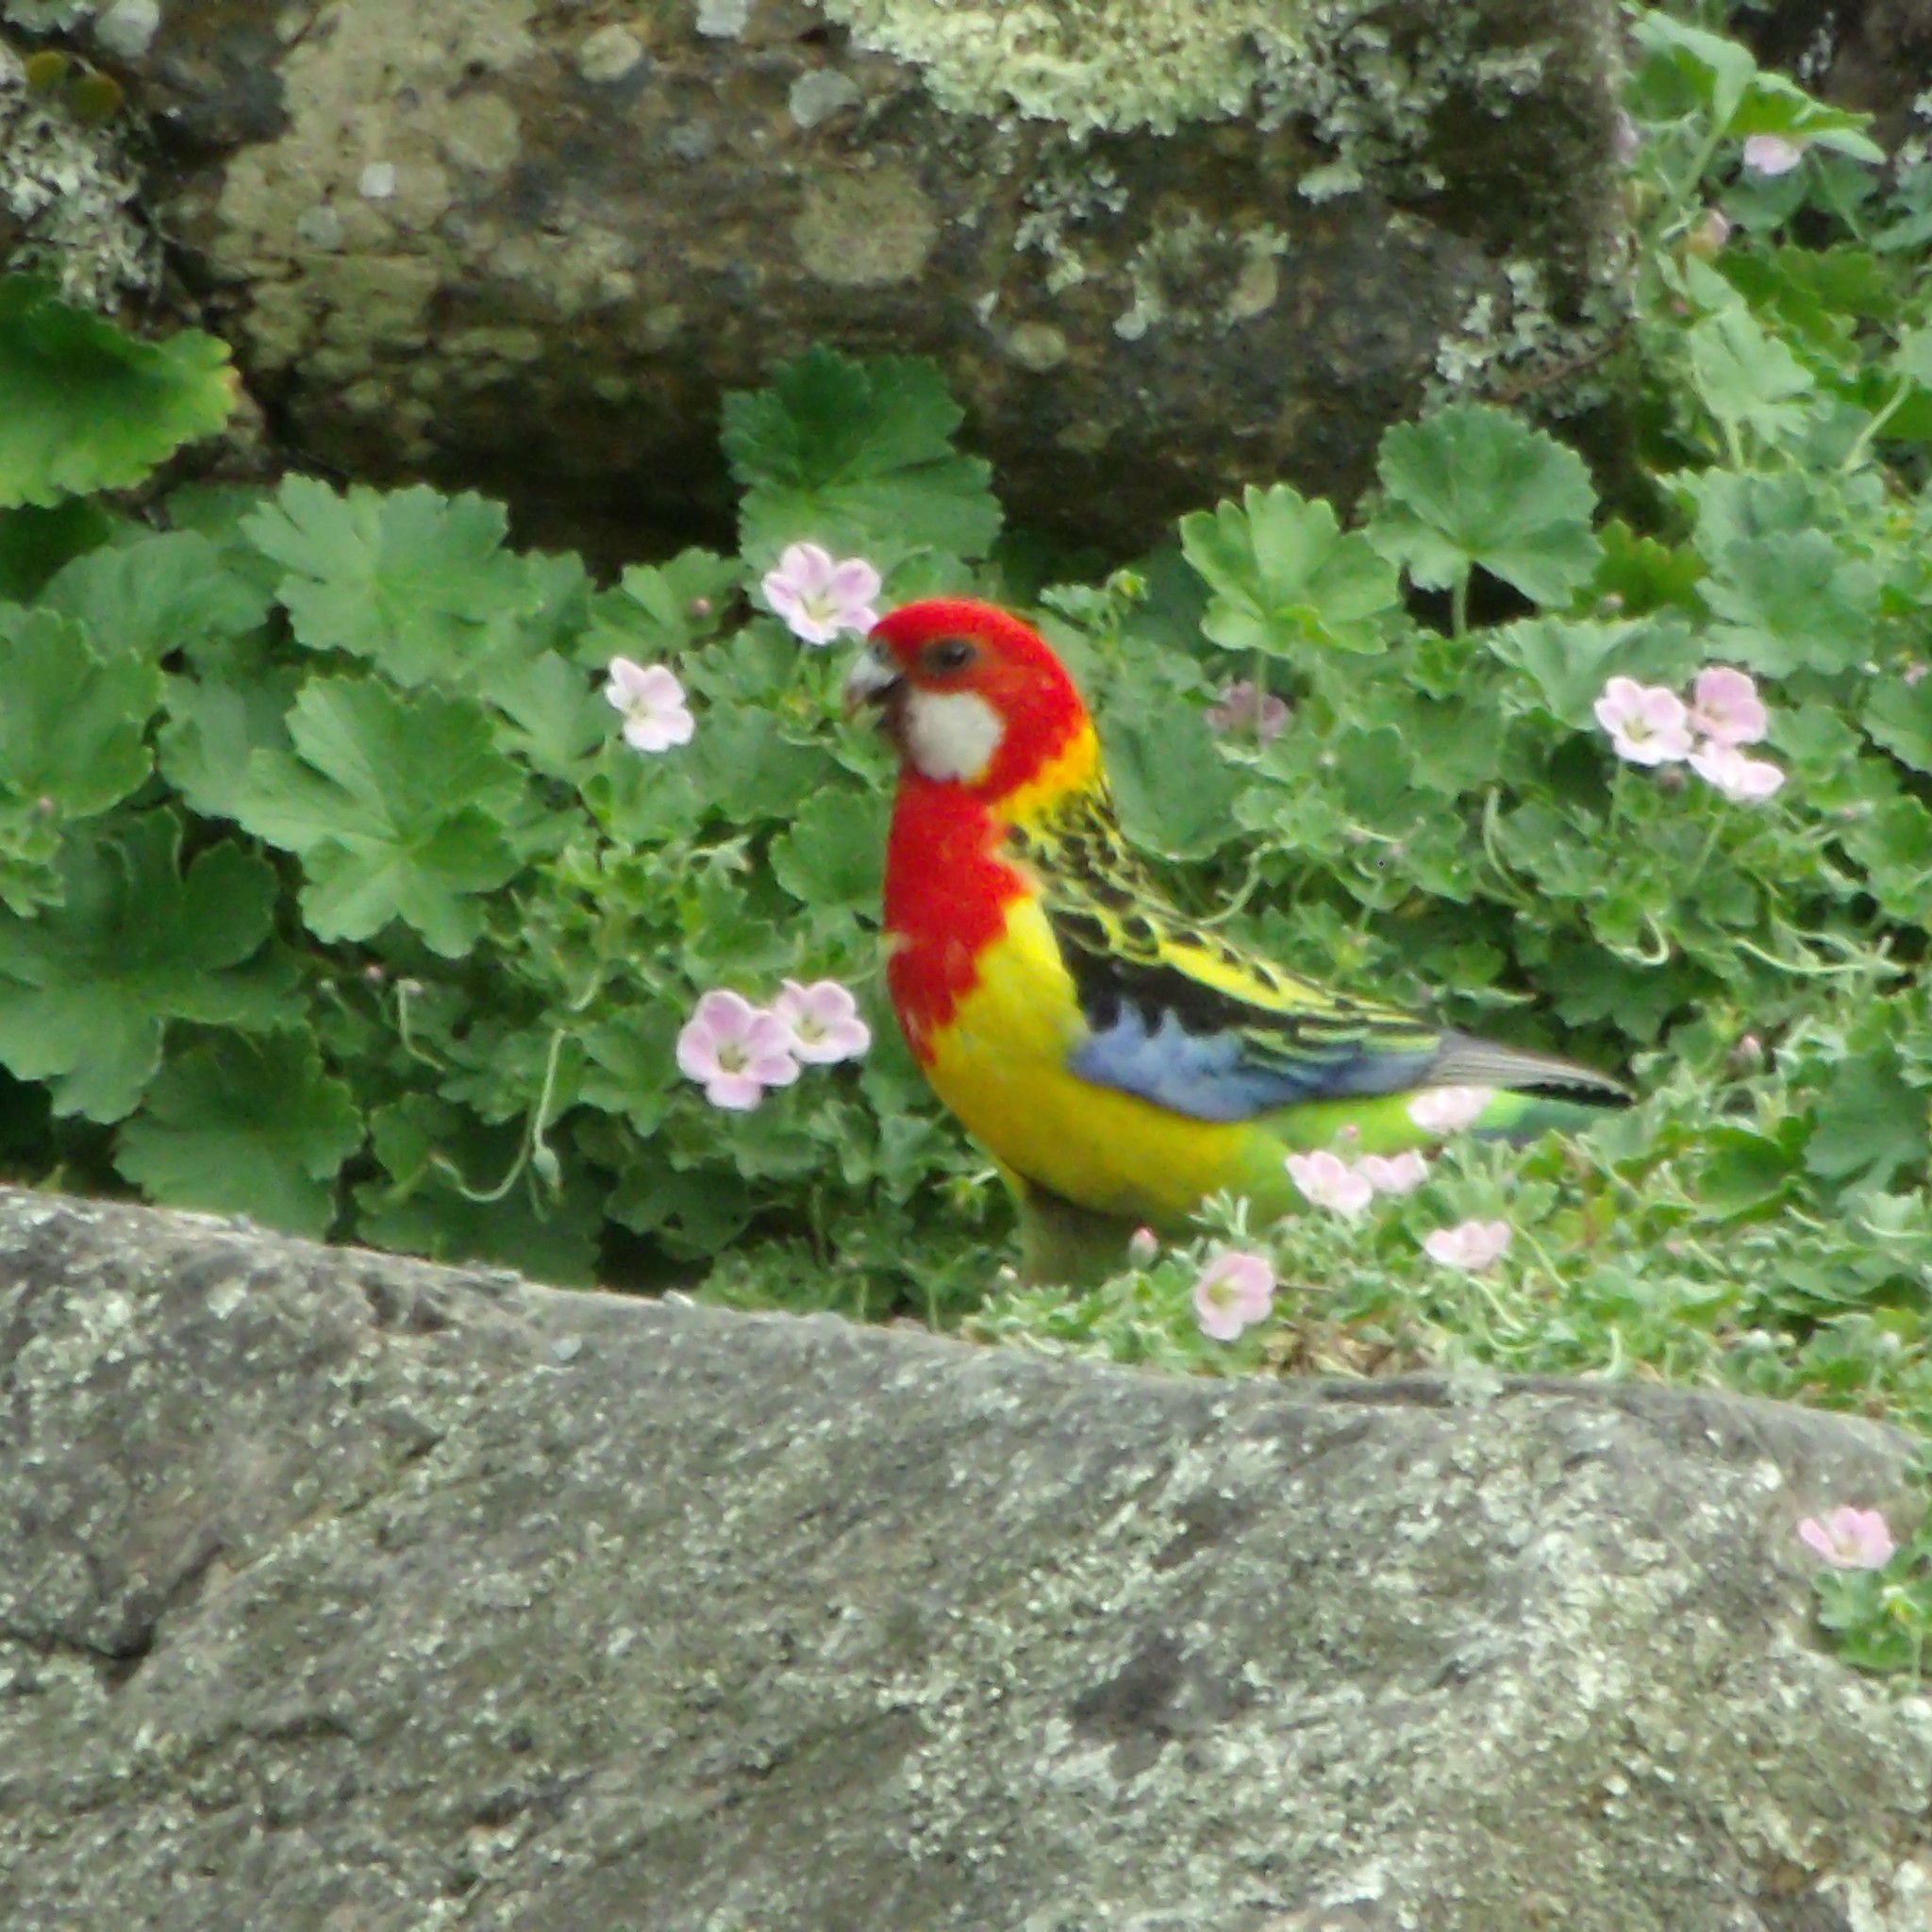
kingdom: Animalia
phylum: Chordata
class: Aves
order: Psittaciformes
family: Psittacidae
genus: Platycercus
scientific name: Platycercus eximius
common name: Eastern rosella
